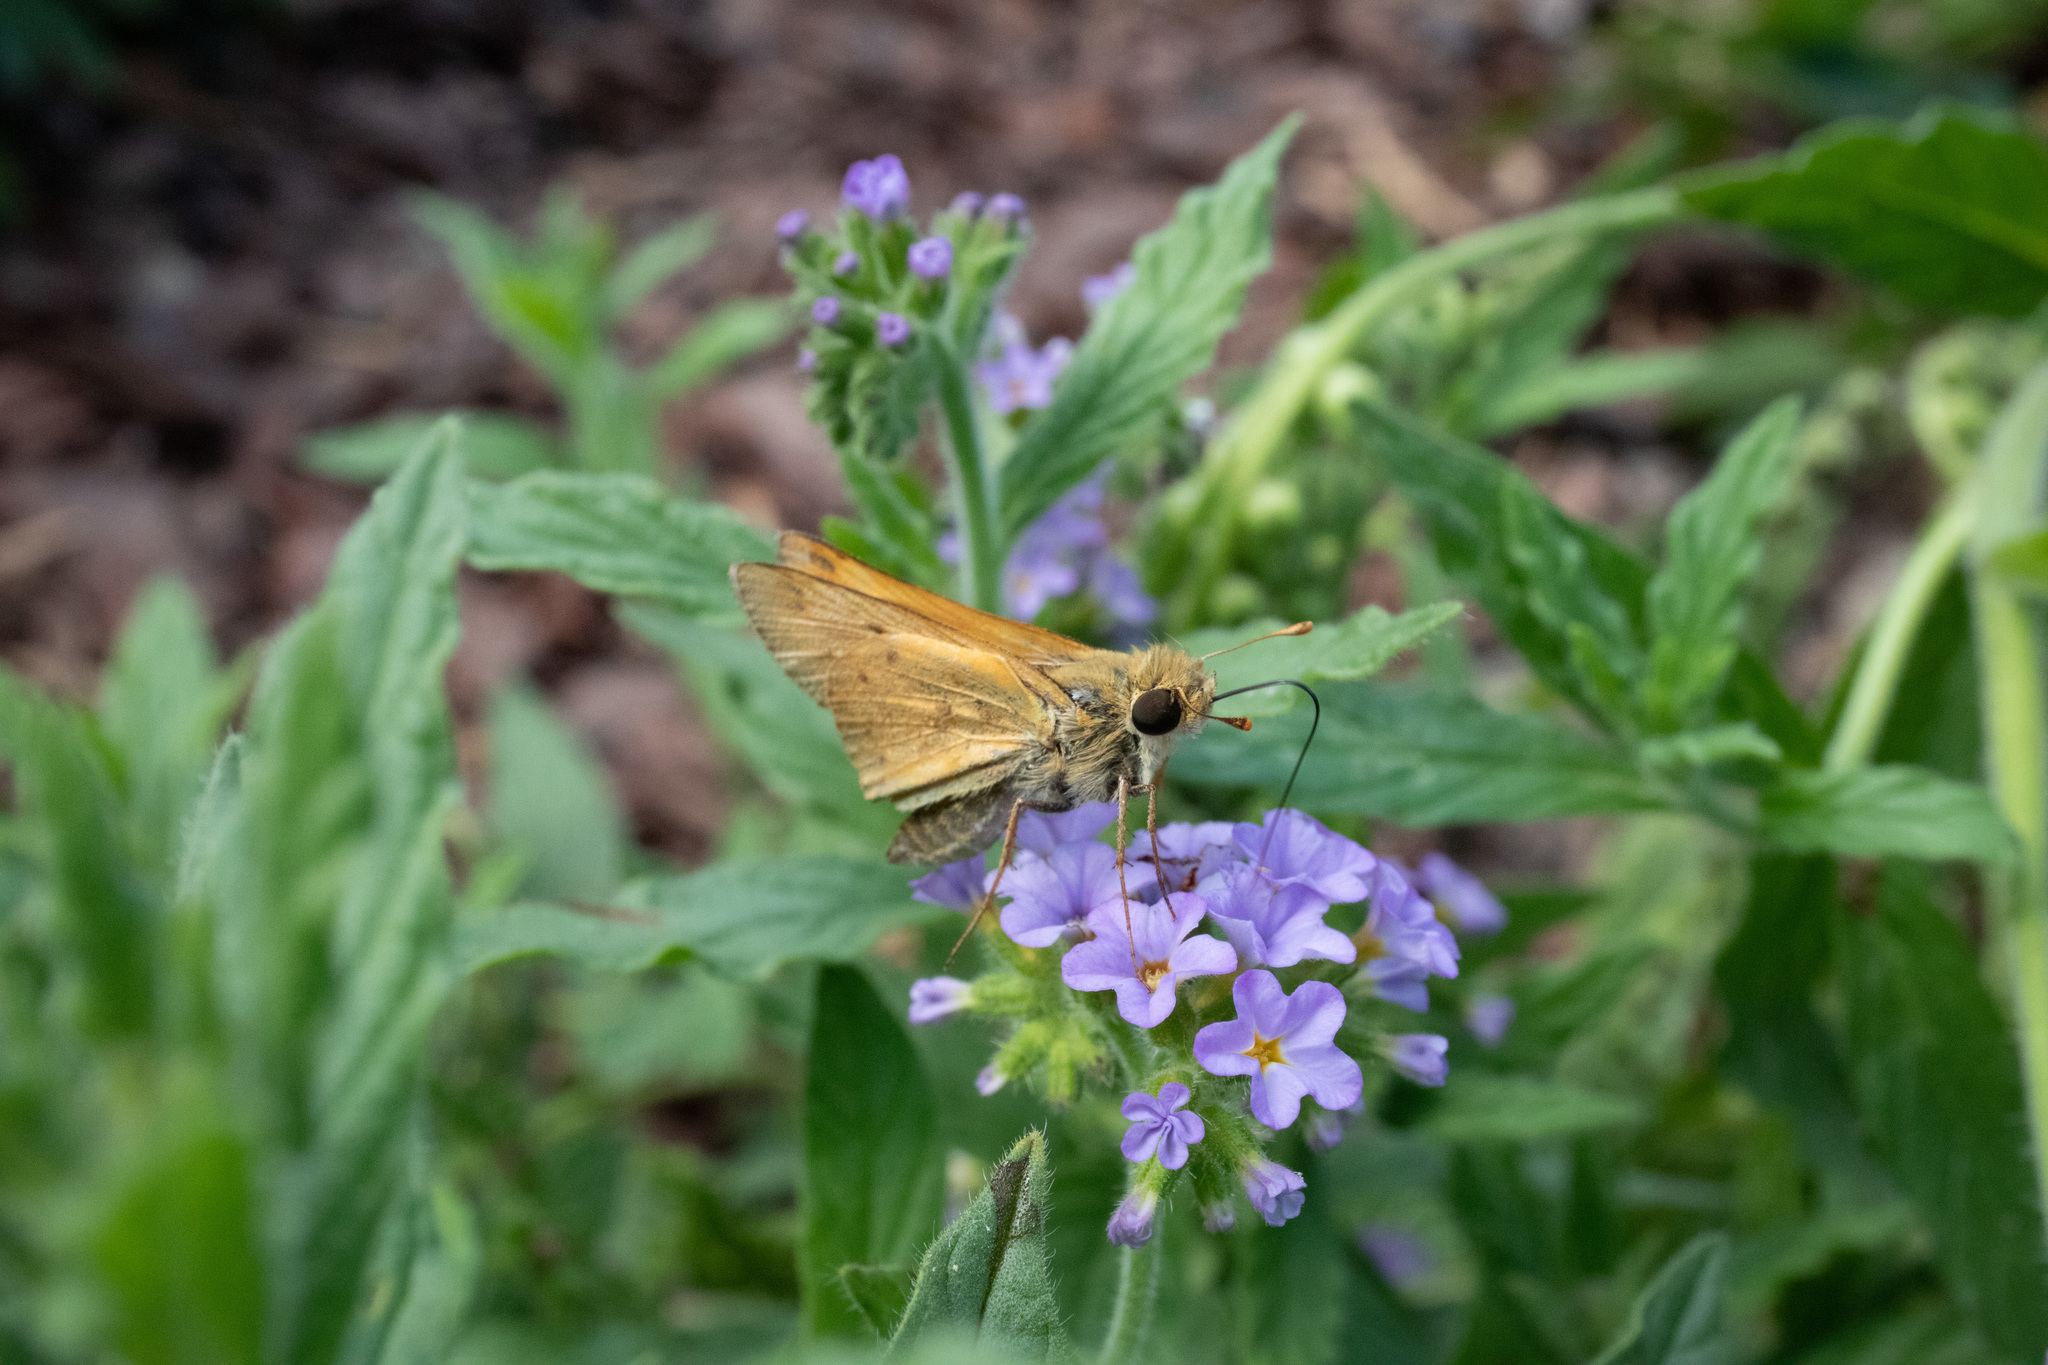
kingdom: Animalia
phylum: Arthropoda
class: Insecta
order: Lepidoptera
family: Hesperiidae
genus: Hylephila
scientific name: Hylephila phyleus
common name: Fiery skipper
